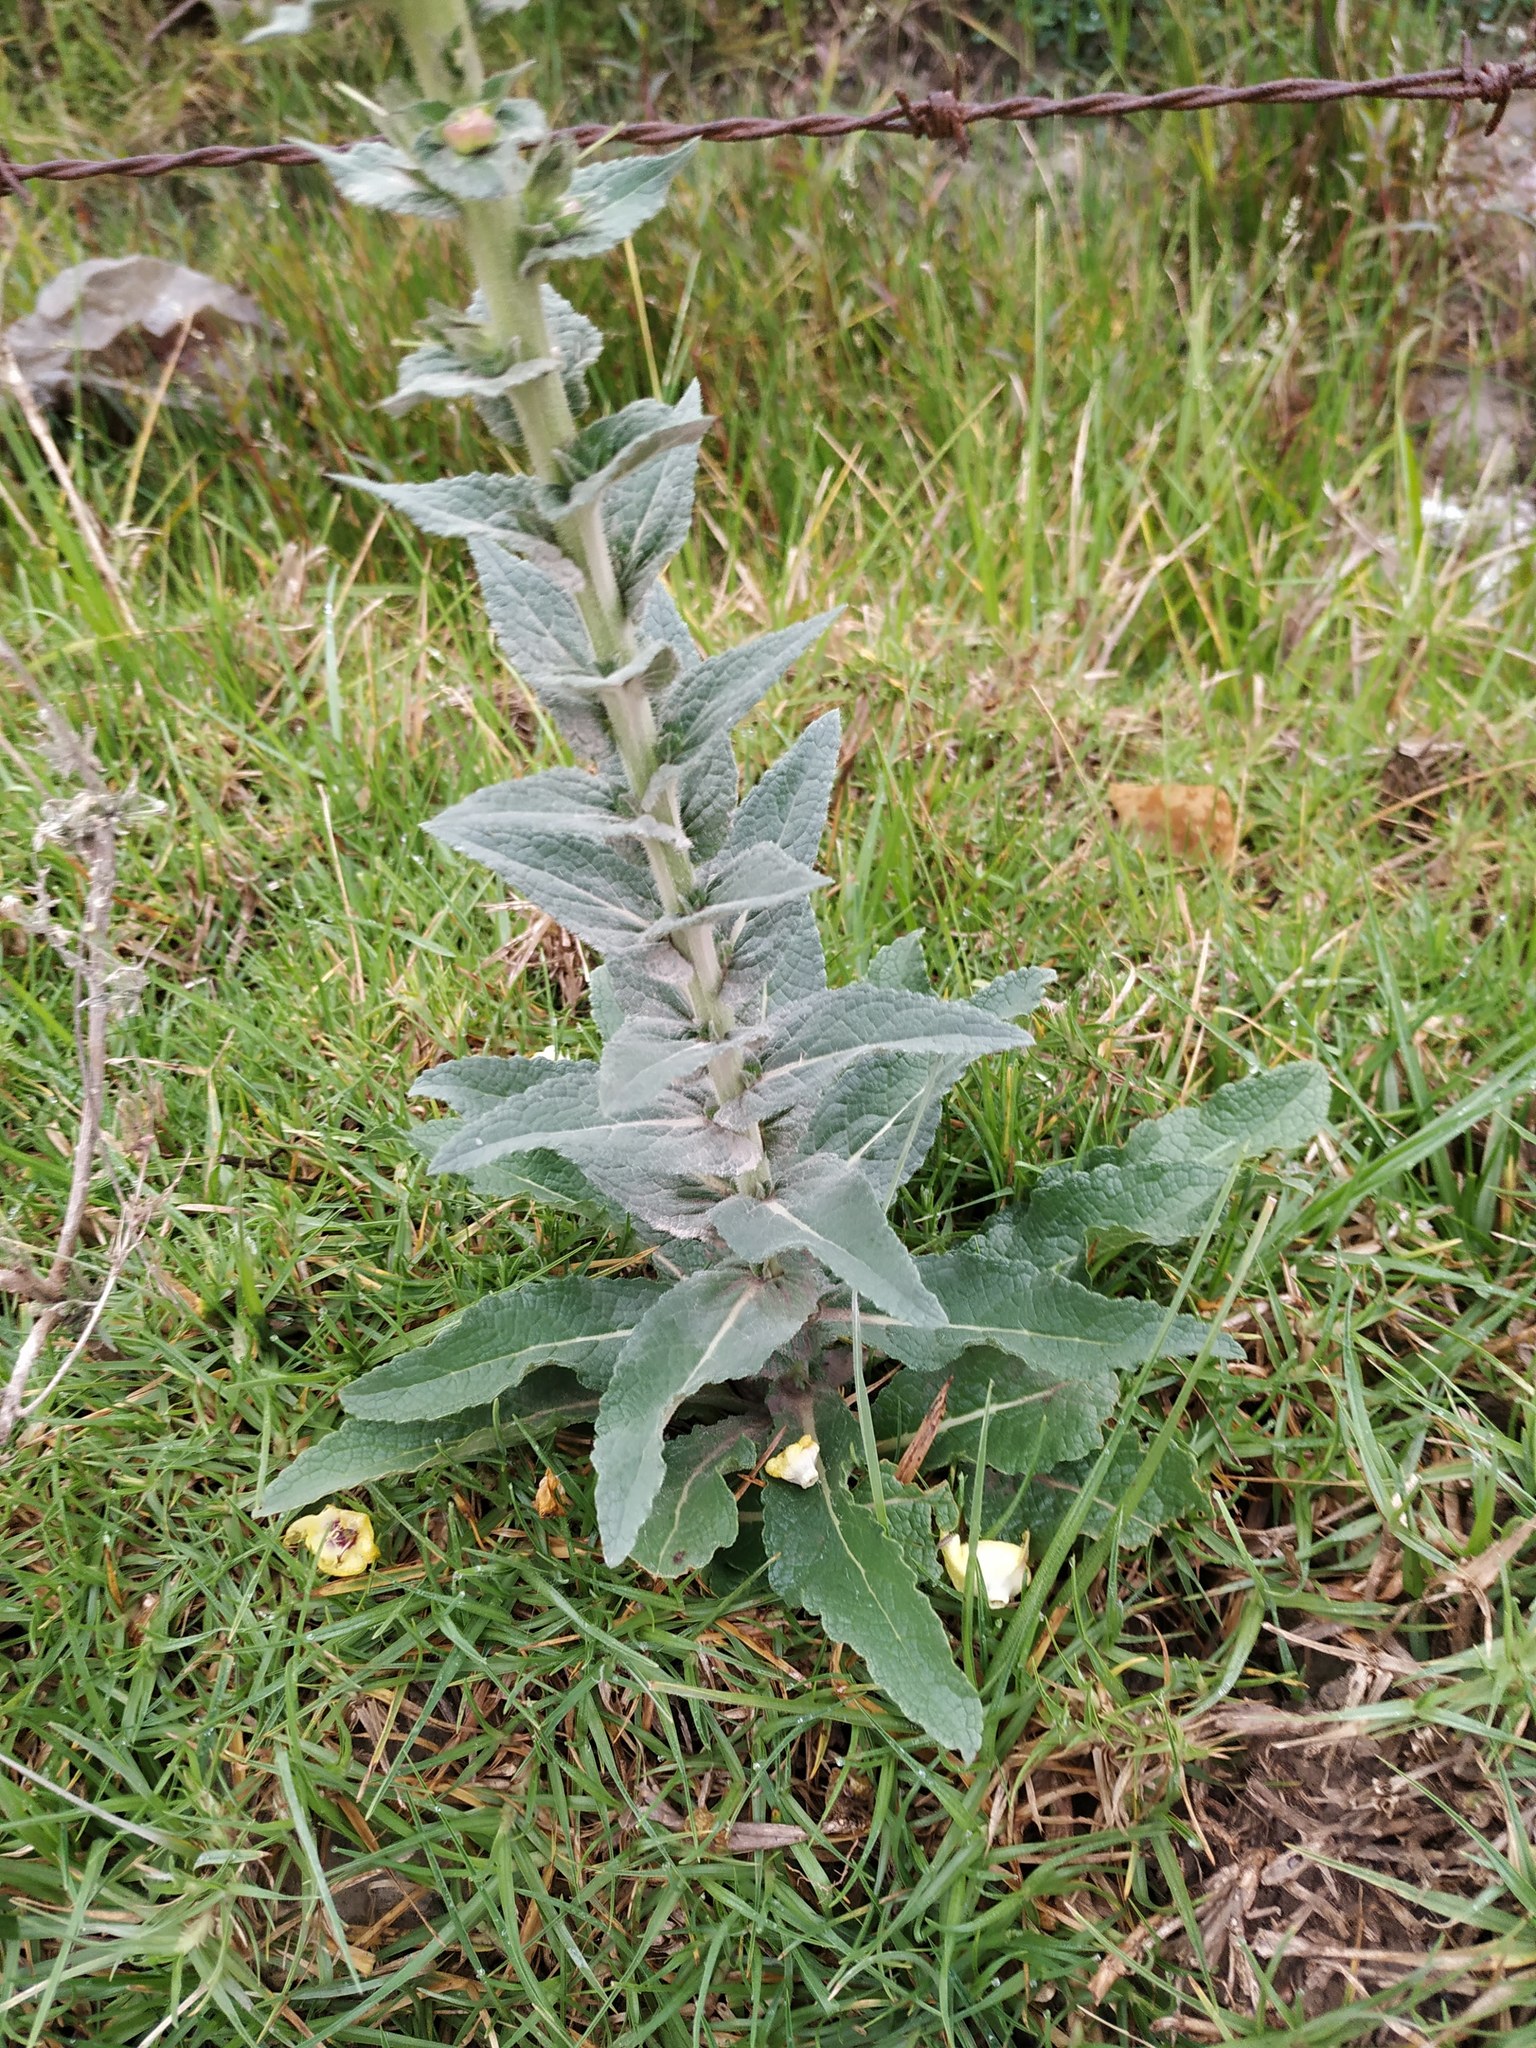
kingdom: Plantae
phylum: Tracheophyta
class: Magnoliopsida
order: Lamiales
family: Scrophulariaceae
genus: Verbascum
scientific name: Verbascum virgatum
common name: Twiggy mullein
